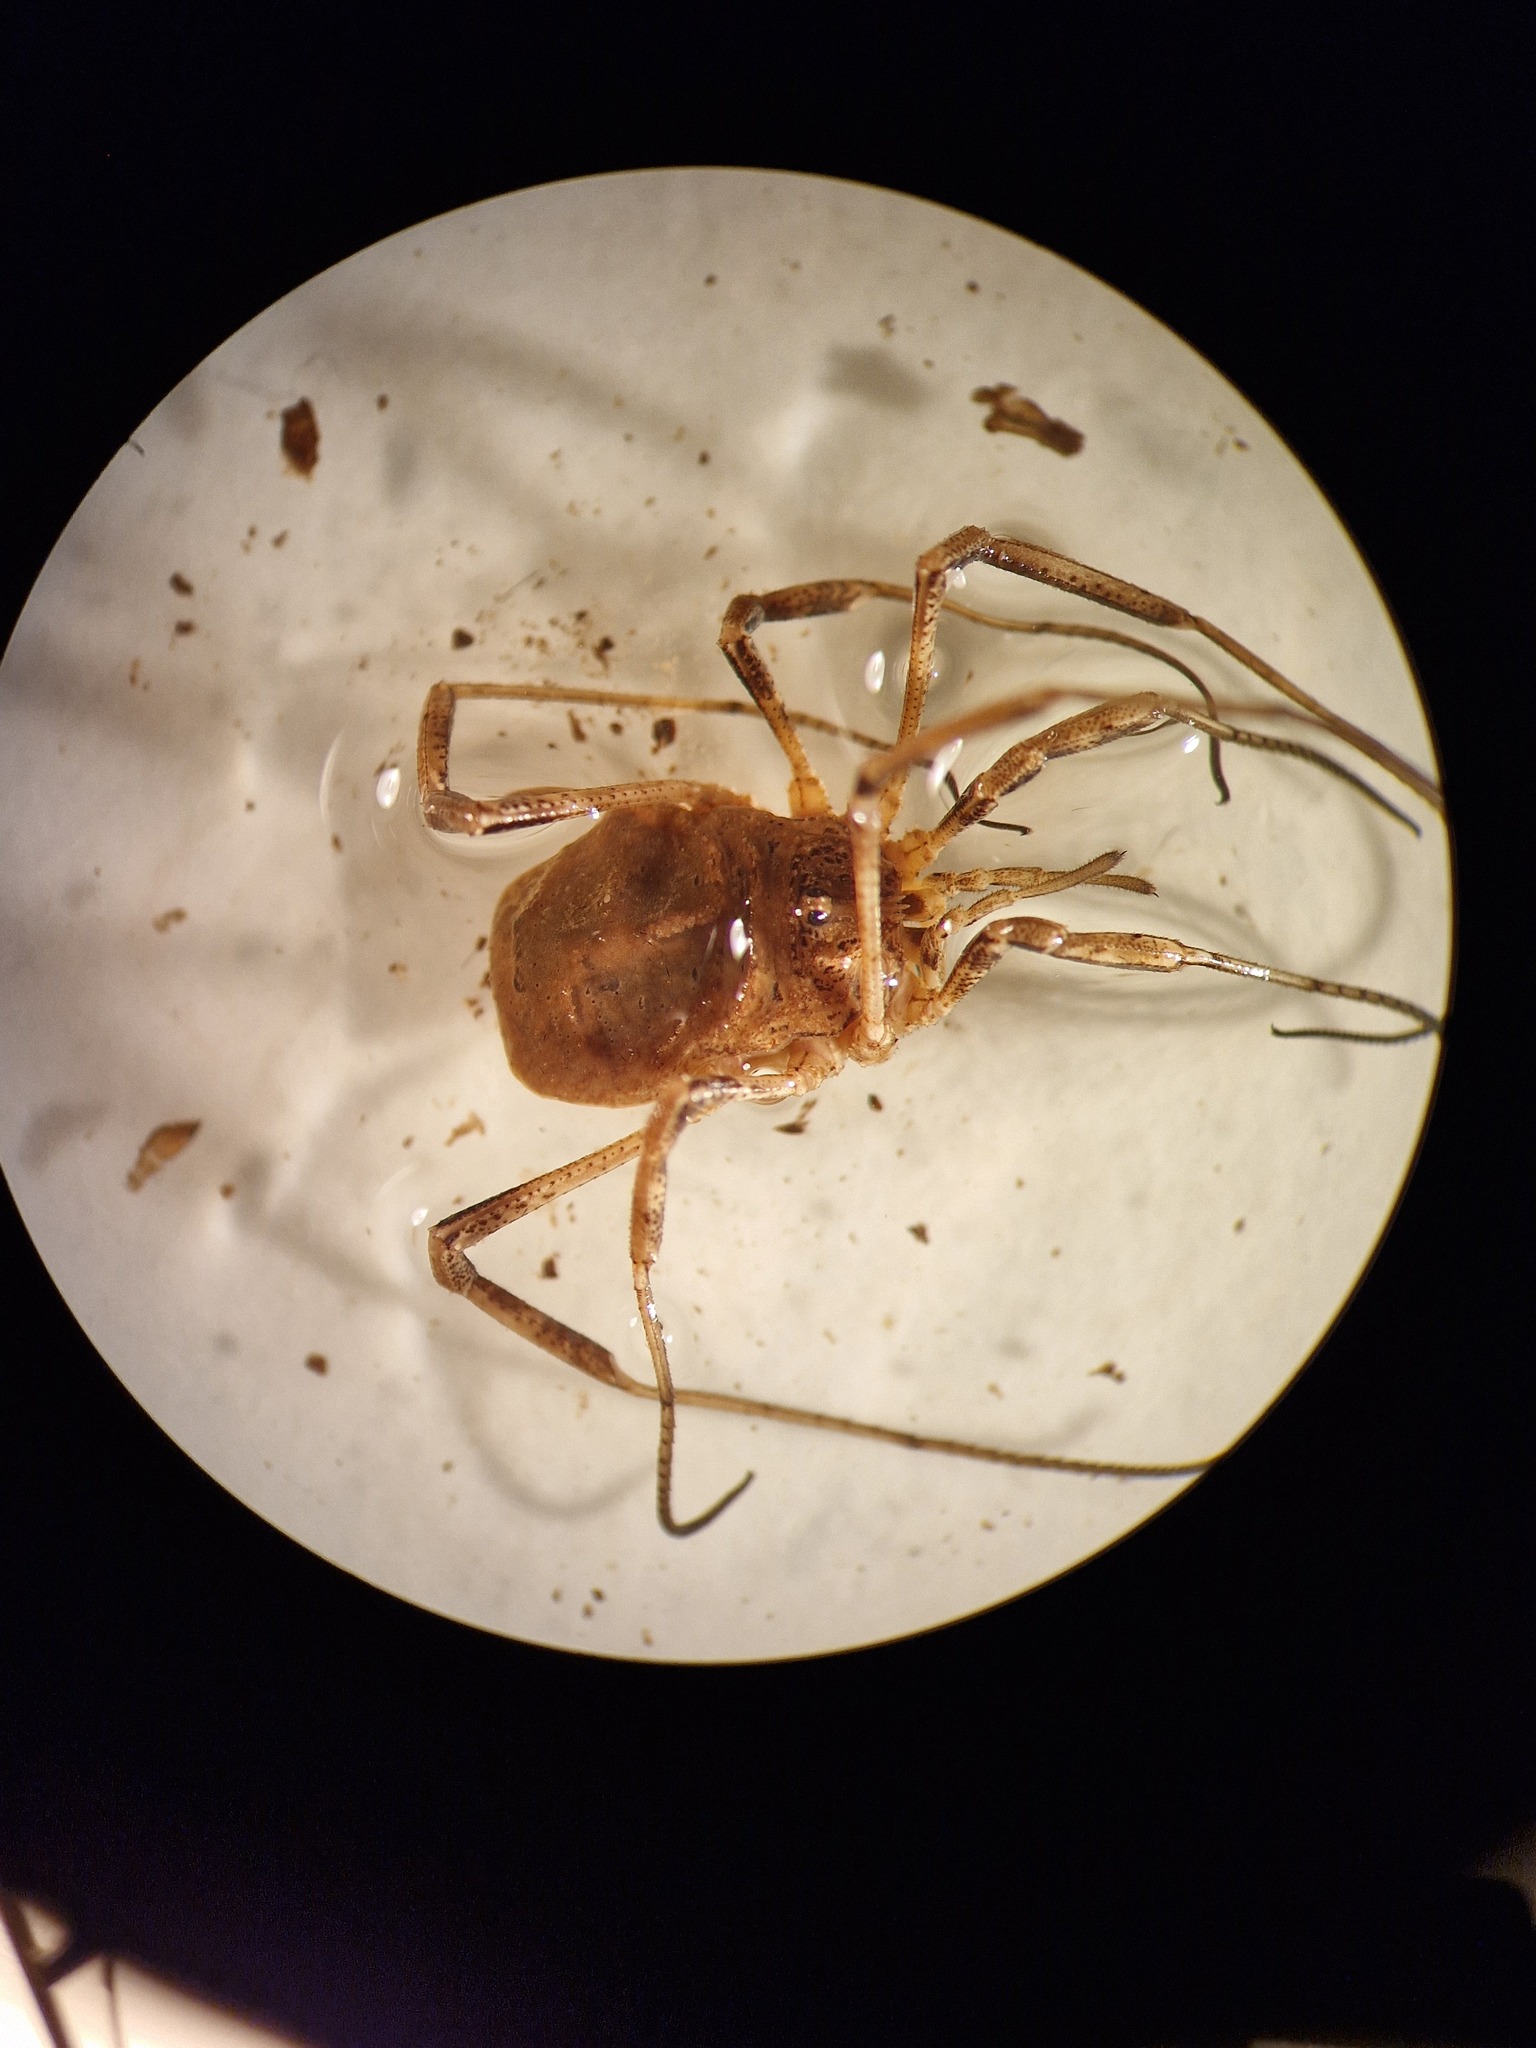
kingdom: Animalia
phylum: Arthropoda
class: Arachnida
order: Opiliones
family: Phalangiidae
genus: Odiellus
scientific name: Odiellus spinosus
